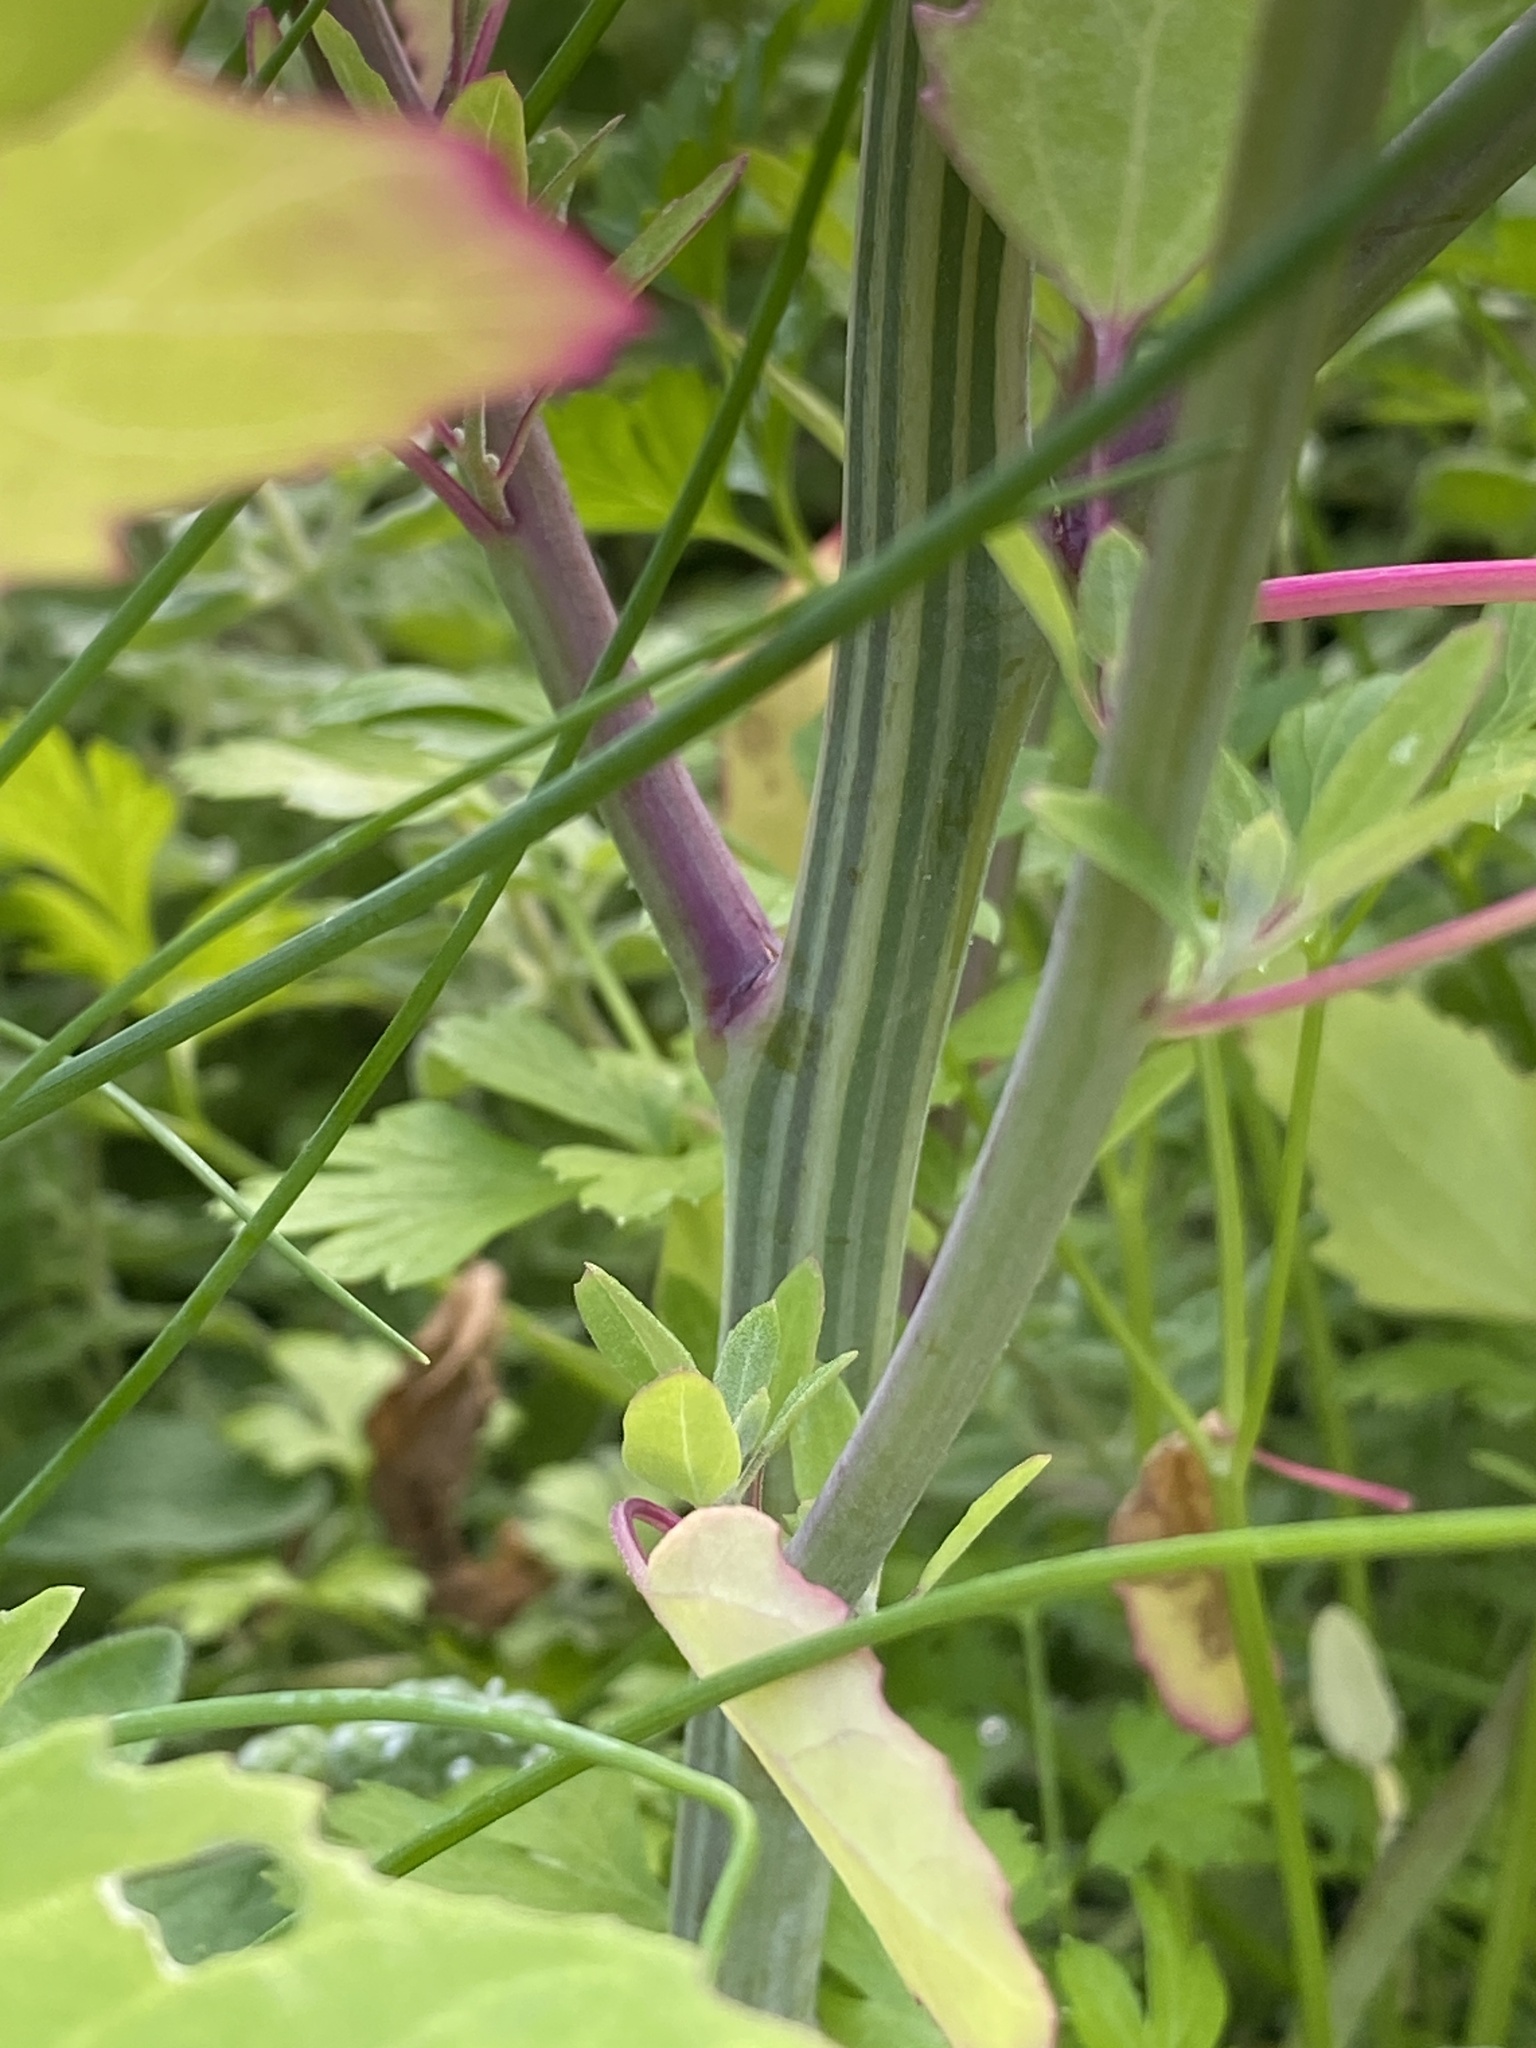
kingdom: Plantae
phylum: Tracheophyta
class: Magnoliopsida
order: Caryophyllales
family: Amaranthaceae
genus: Chenopodium
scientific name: Chenopodium album
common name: Fat-hen
